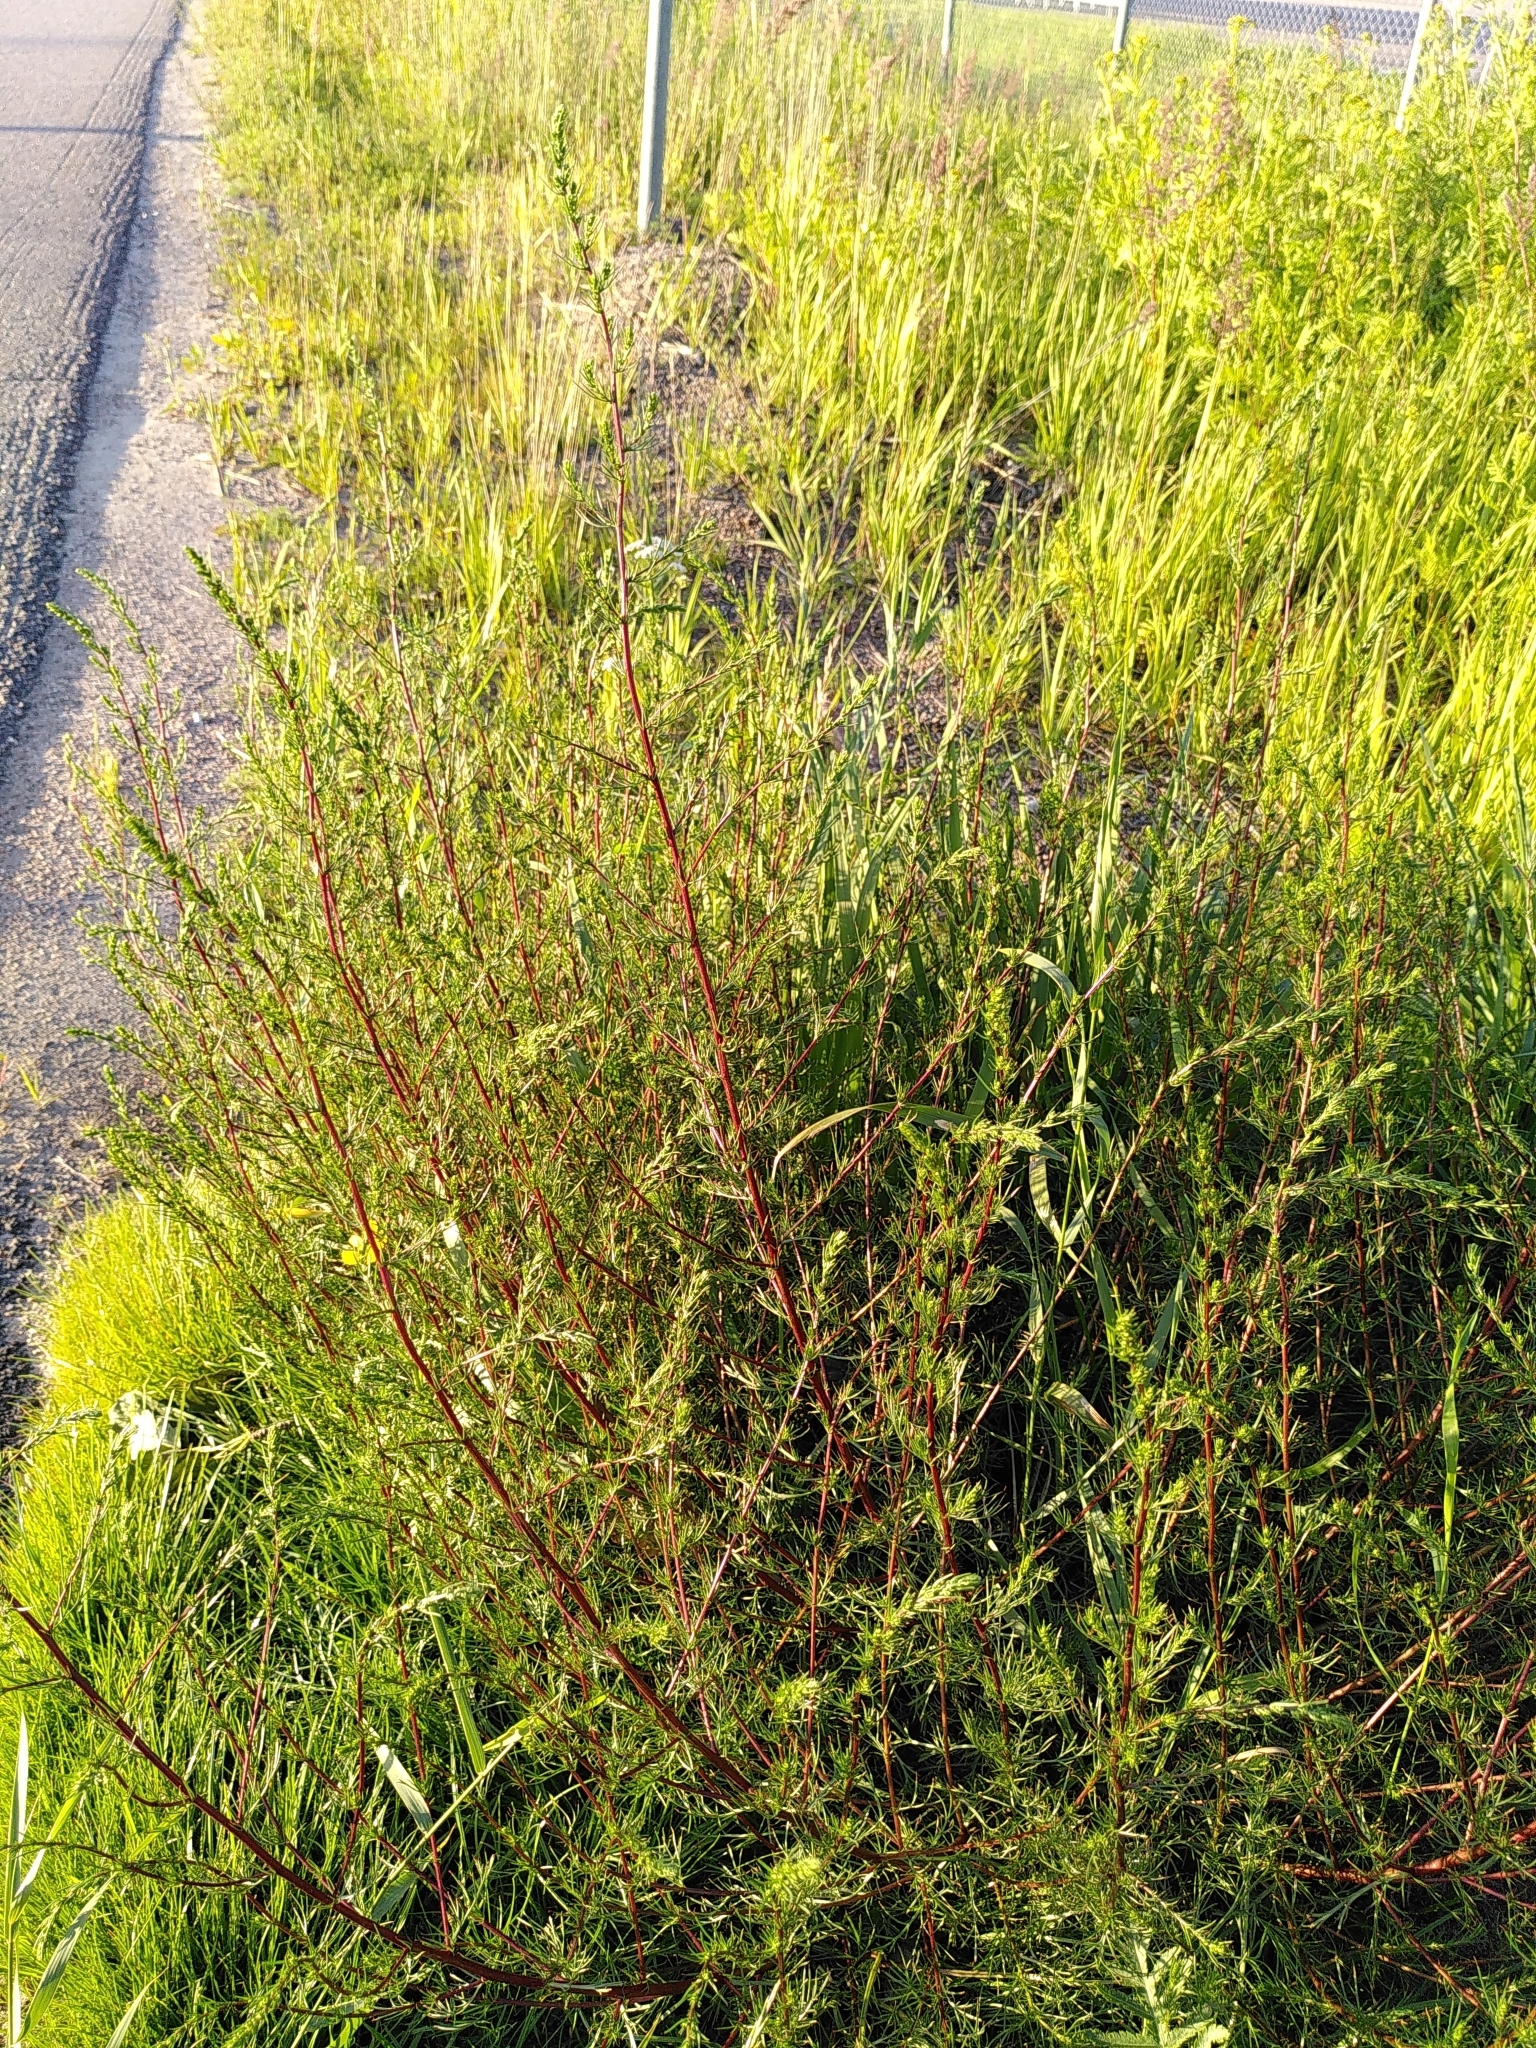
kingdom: Plantae
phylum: Tracheophyta
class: Magnoliopsida
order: Asterales
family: Asteraceae
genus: Artemisia
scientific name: Artemisia campestris
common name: Field wormwood
